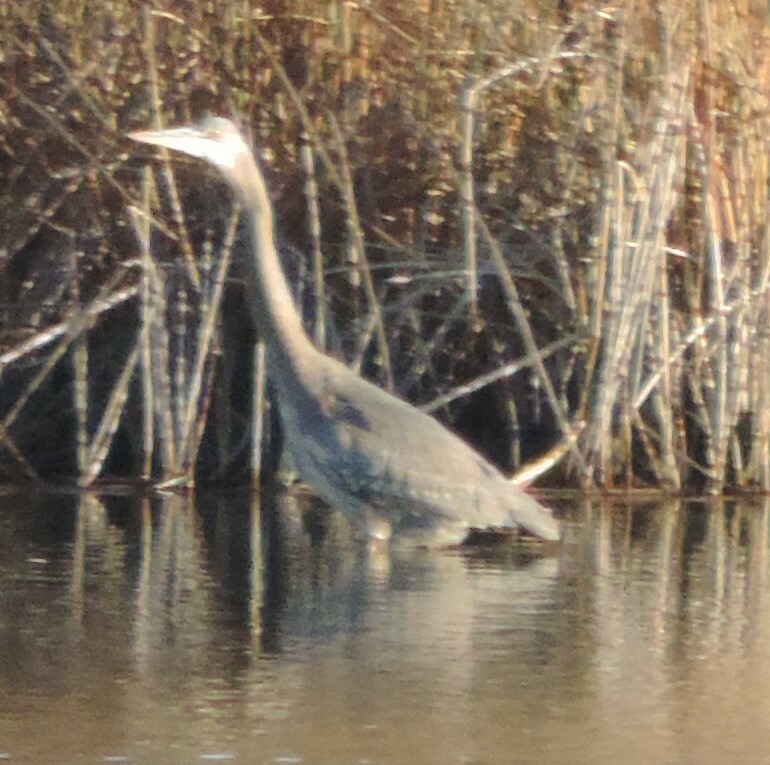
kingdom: Animalia
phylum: Chordata
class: Aves
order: Pelecaniformes
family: Ardeidae
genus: Ardea
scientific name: Ardea herodias
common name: Great blue heron
